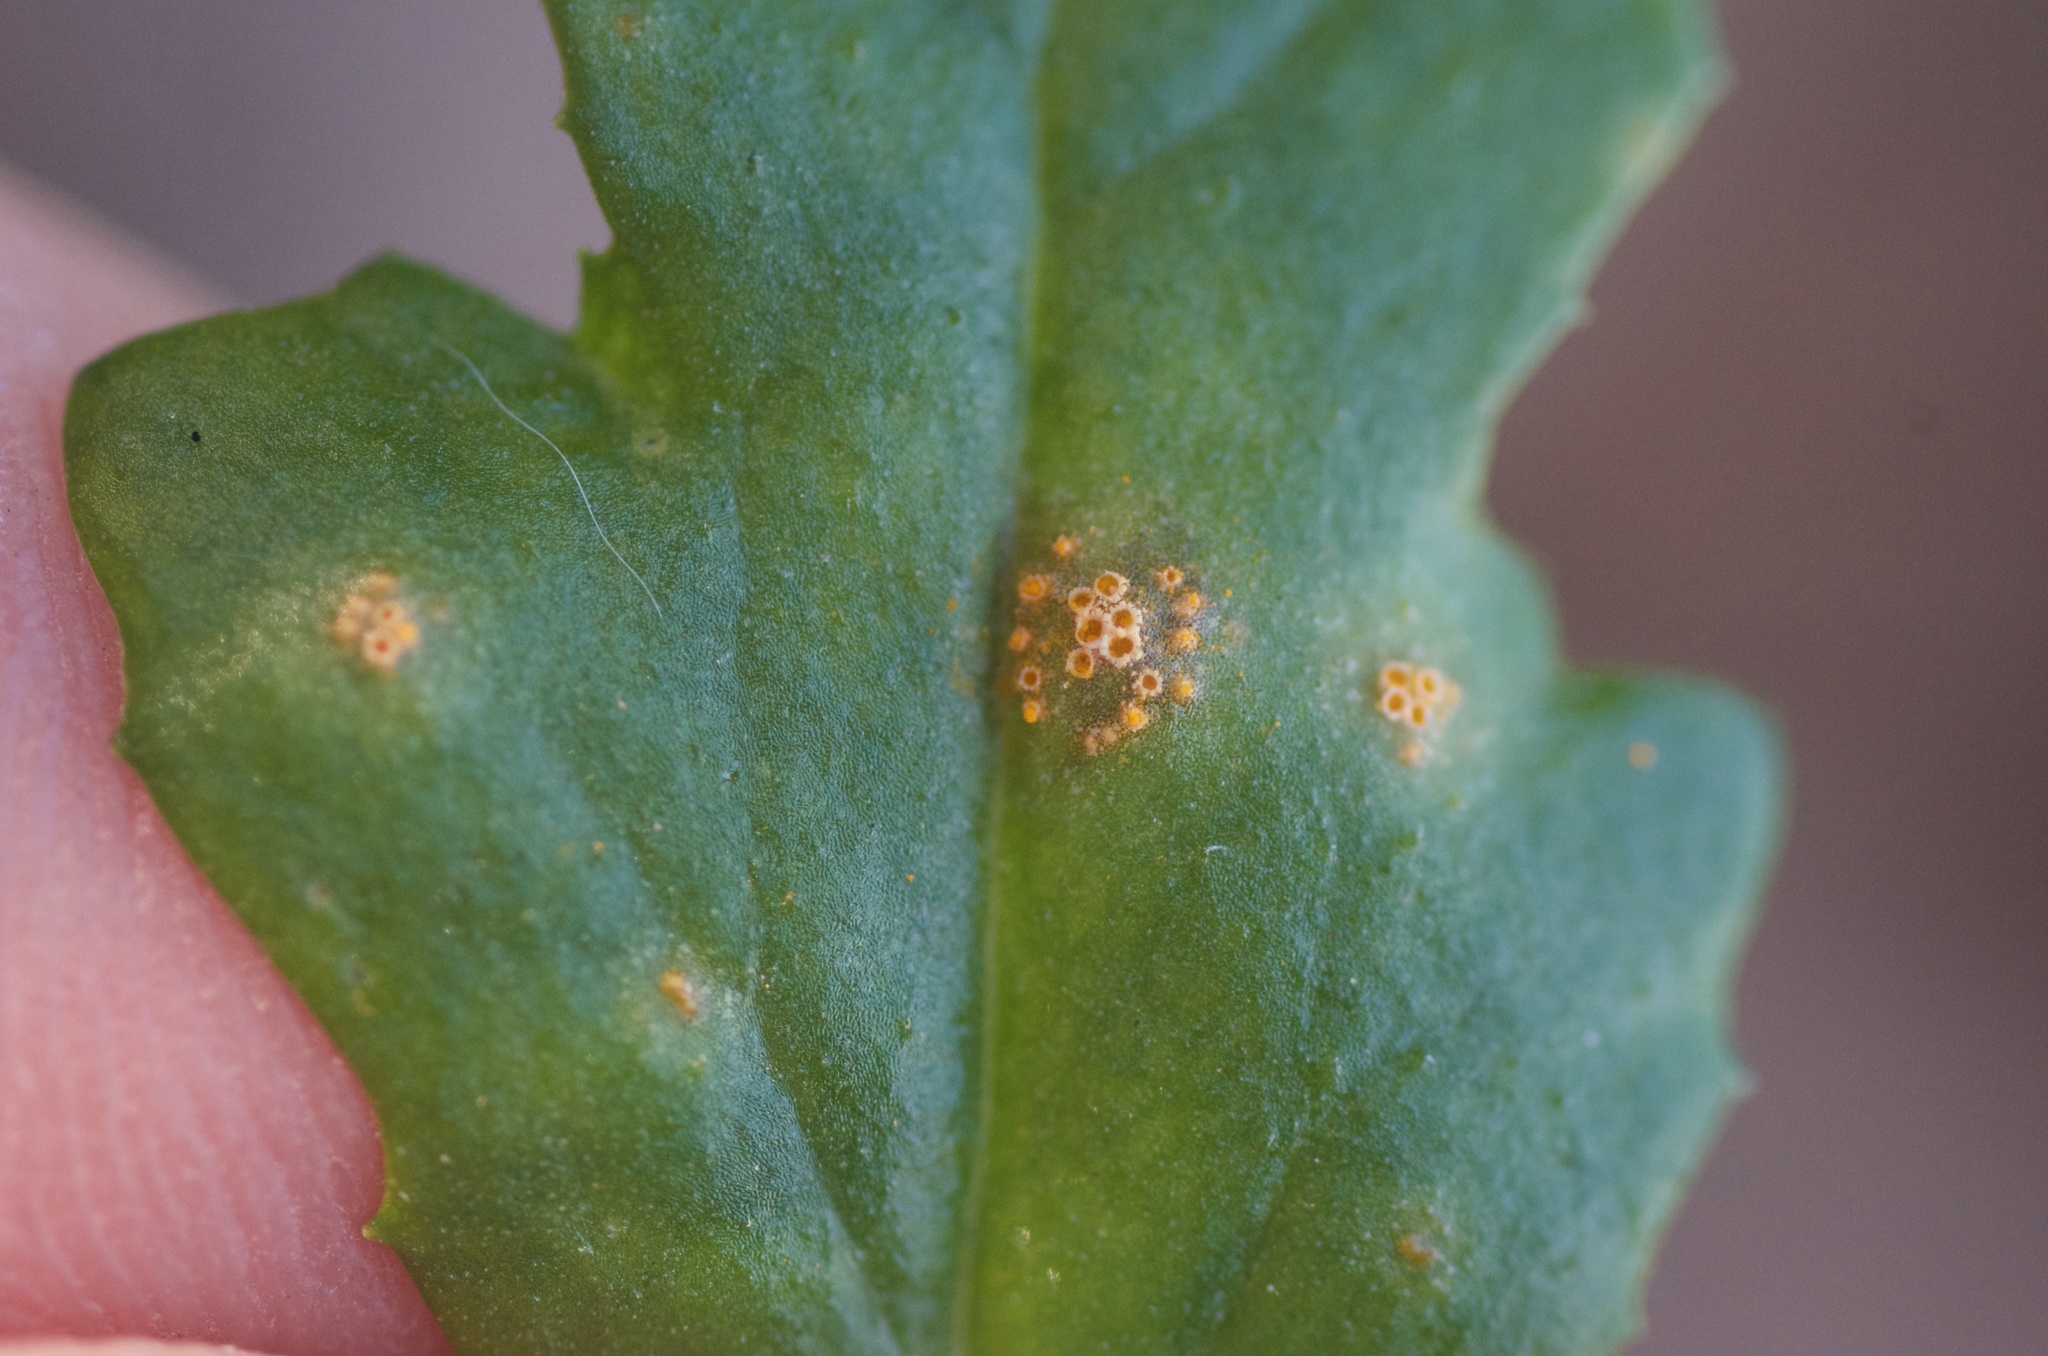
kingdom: Fungi
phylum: Basidiomycota
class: Pucciniomycetes
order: Pucciniales
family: Pucciniaceae
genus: Puccinia
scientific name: Puccinia lagenophorae
